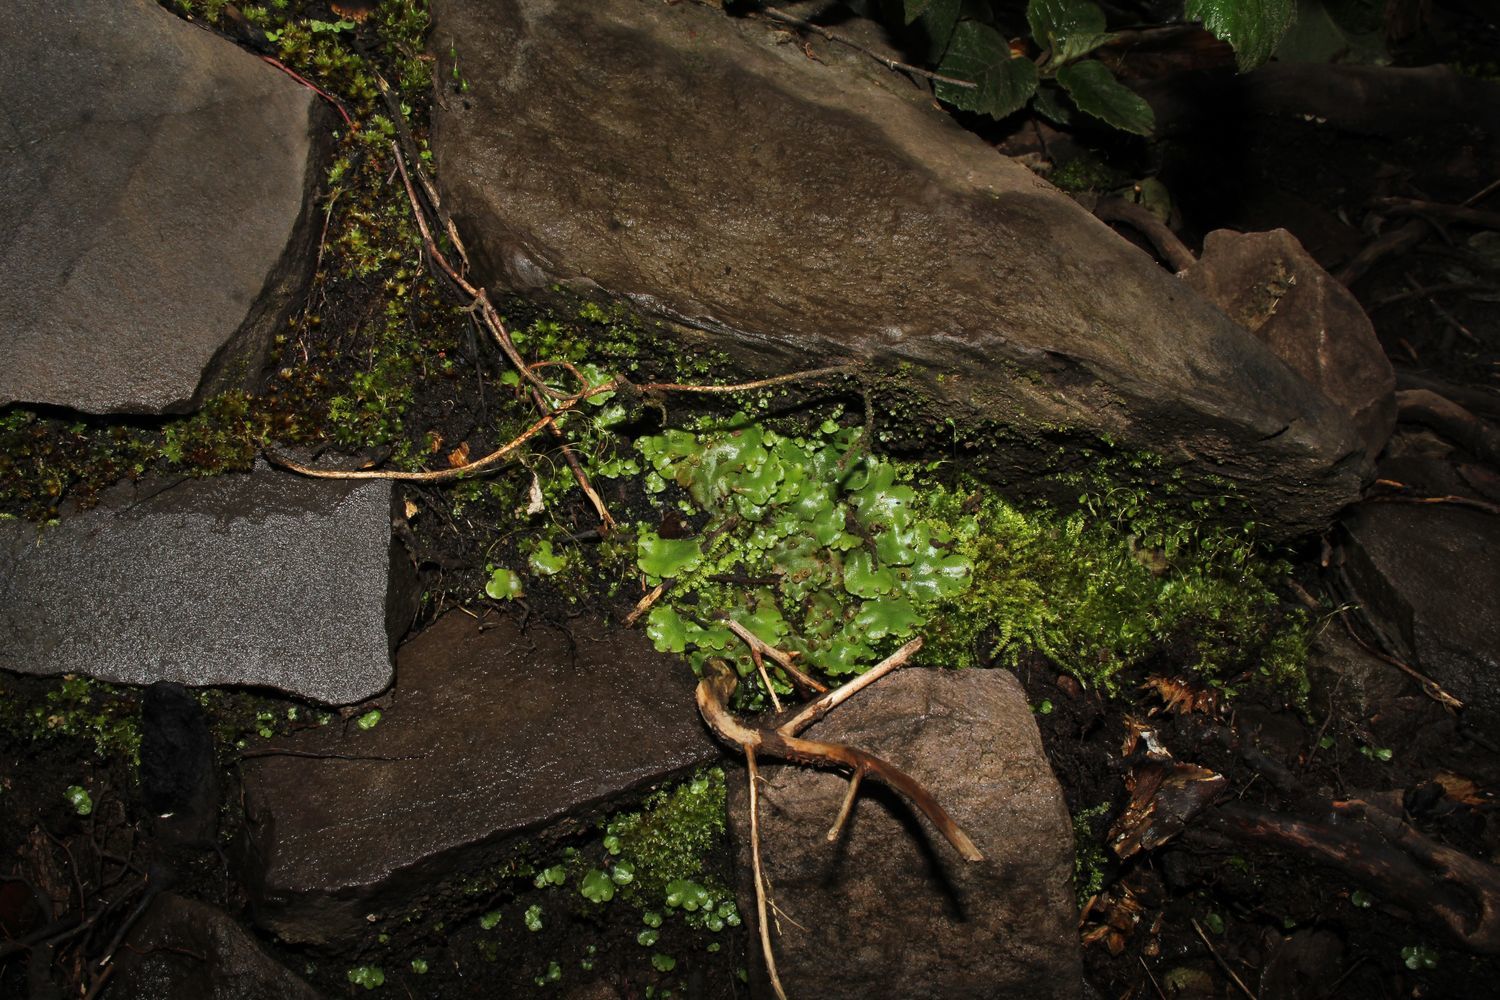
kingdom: Plantae
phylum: Marchantiophyta
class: Marchantiopsida
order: Marchantiales
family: Marchantiaceae
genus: Marchantia
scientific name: Marchantia berteroana
